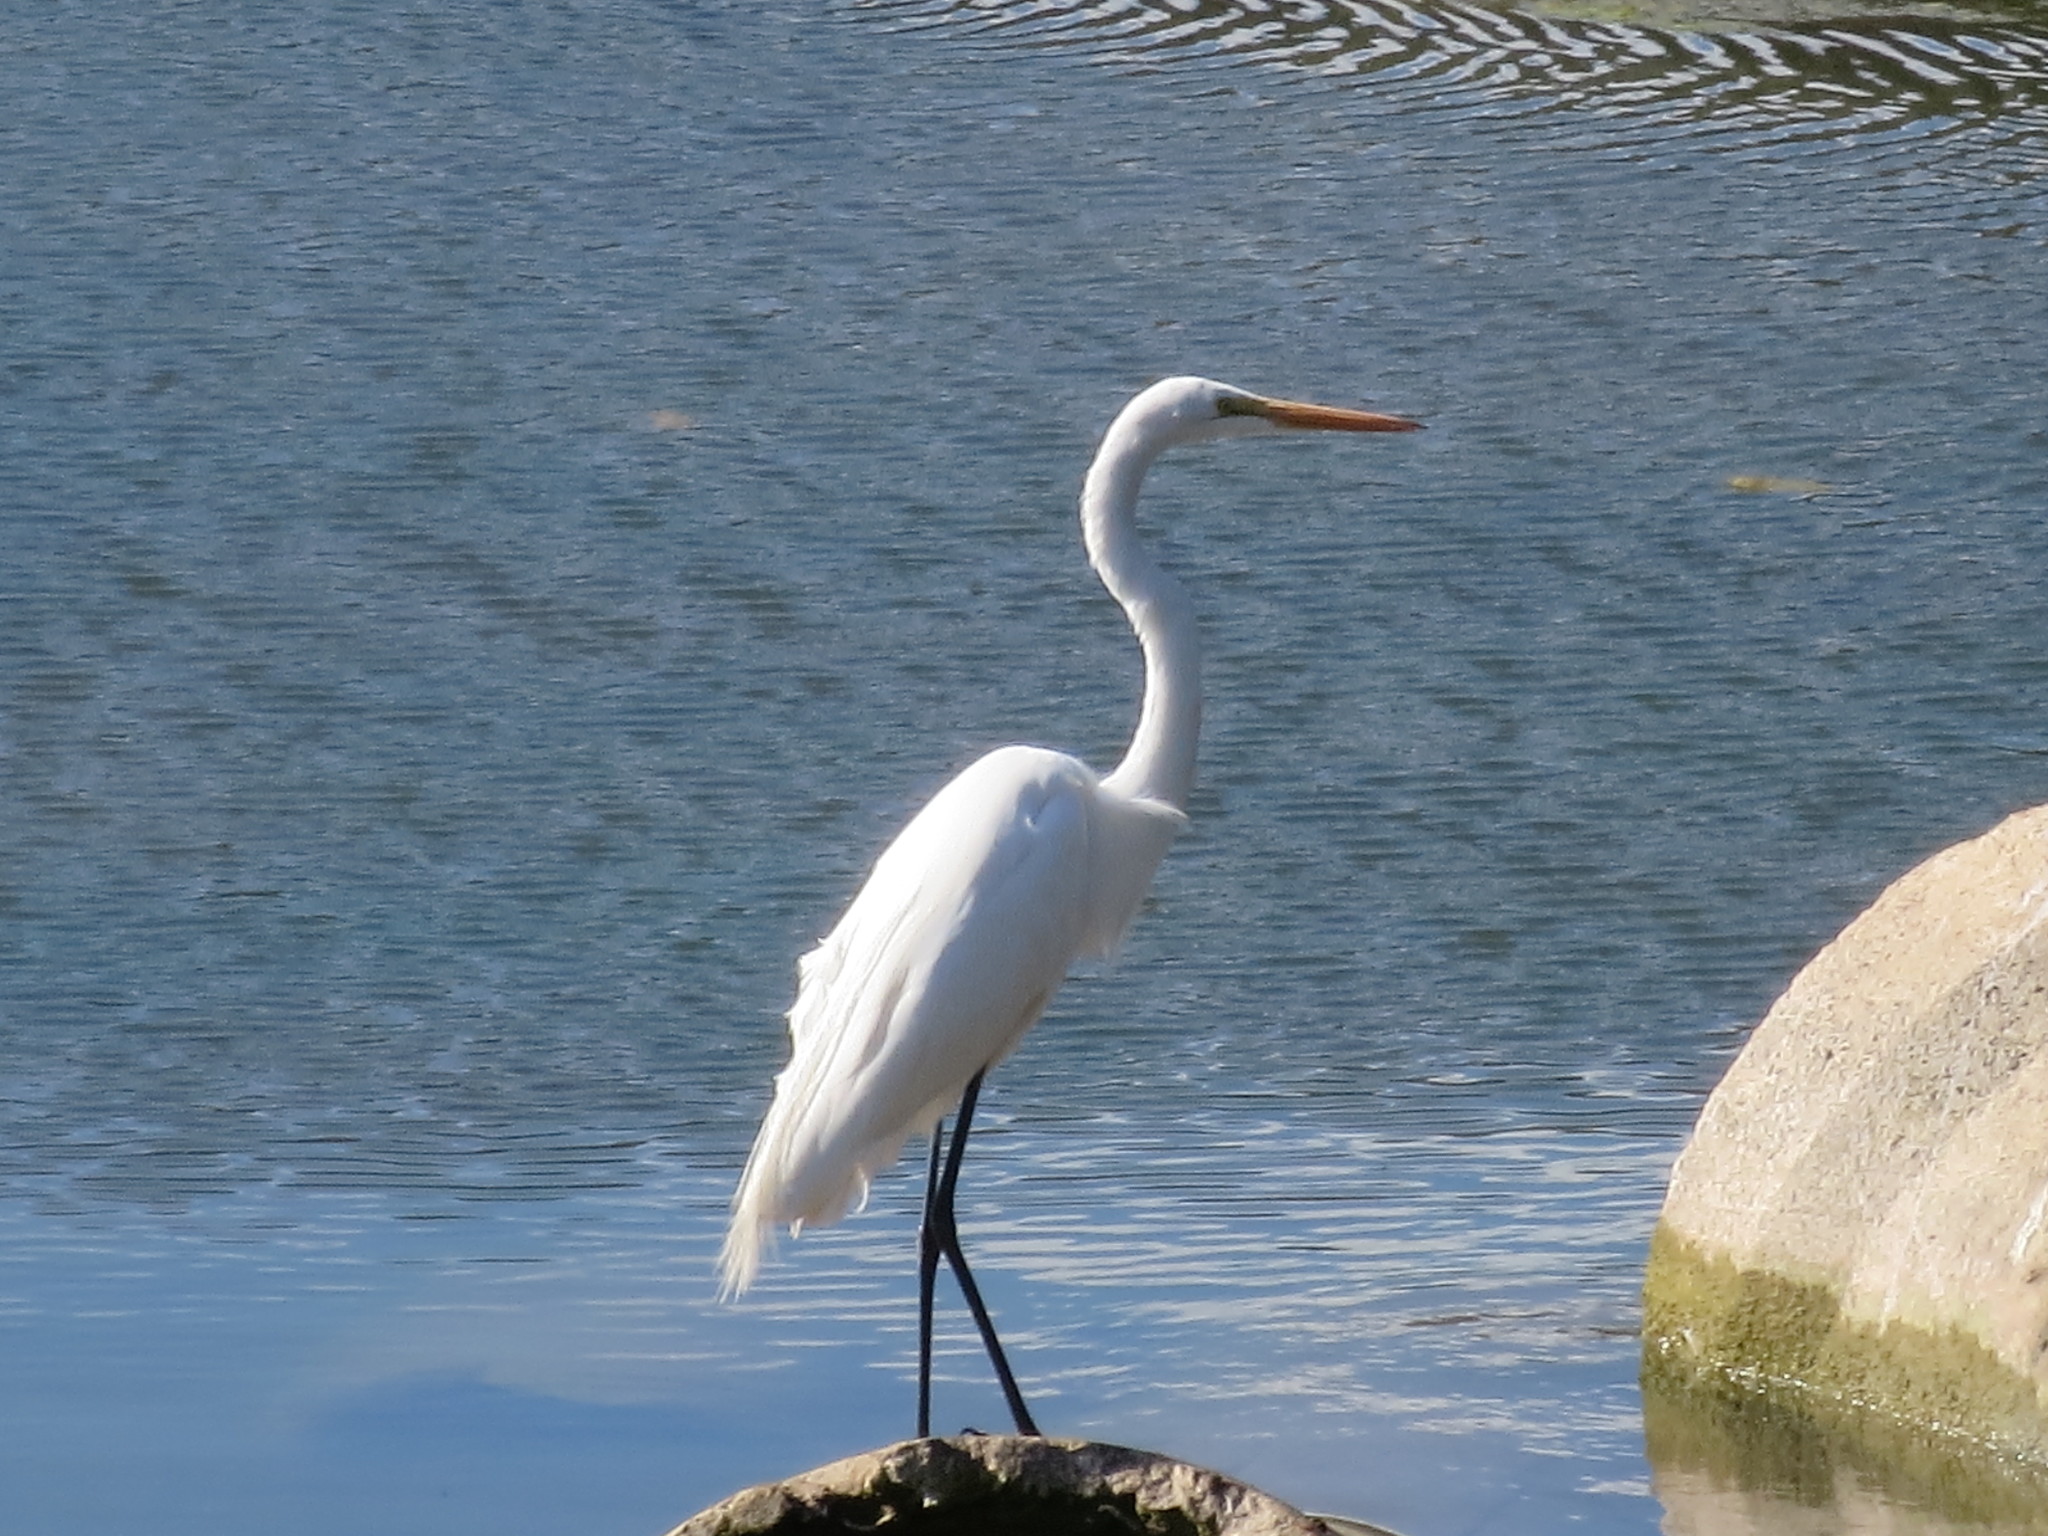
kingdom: Animalia
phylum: Chordata
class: Aves
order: Pelecaniformes
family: Ardeidae
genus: Ardea
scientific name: Ardea alba
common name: Great egret
